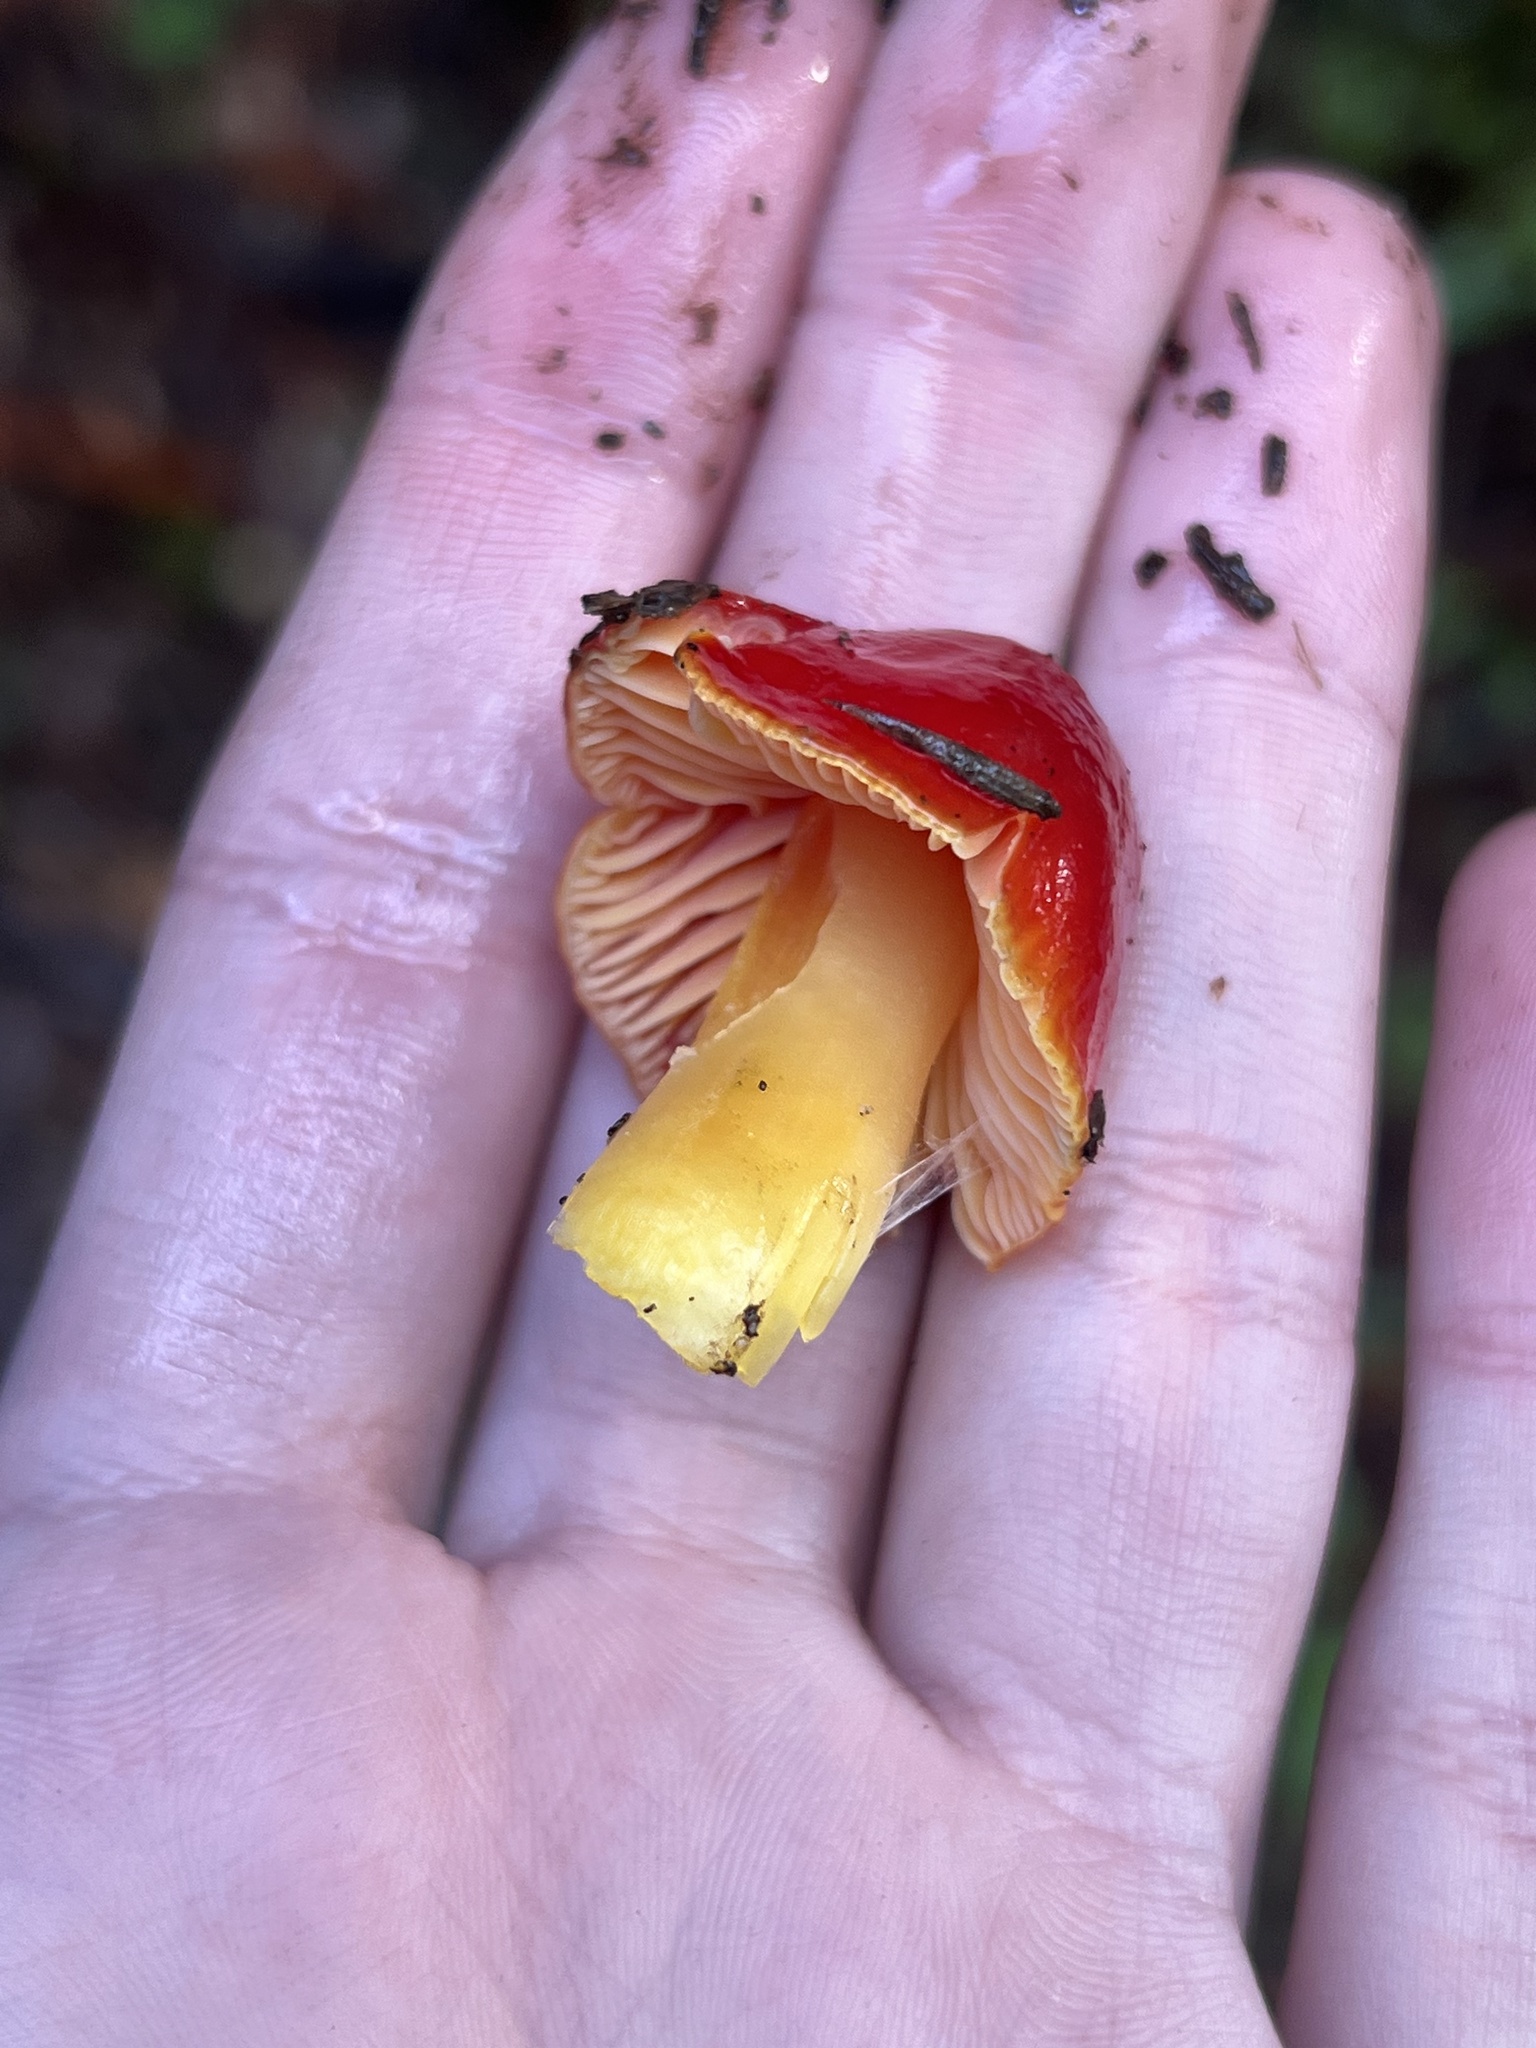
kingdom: Fungi
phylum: Basidiomycota
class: Agaricomycetes
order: Agaricales
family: Hygrophoraceae
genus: Hygrocybe
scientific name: Hygrocybe laetissima
